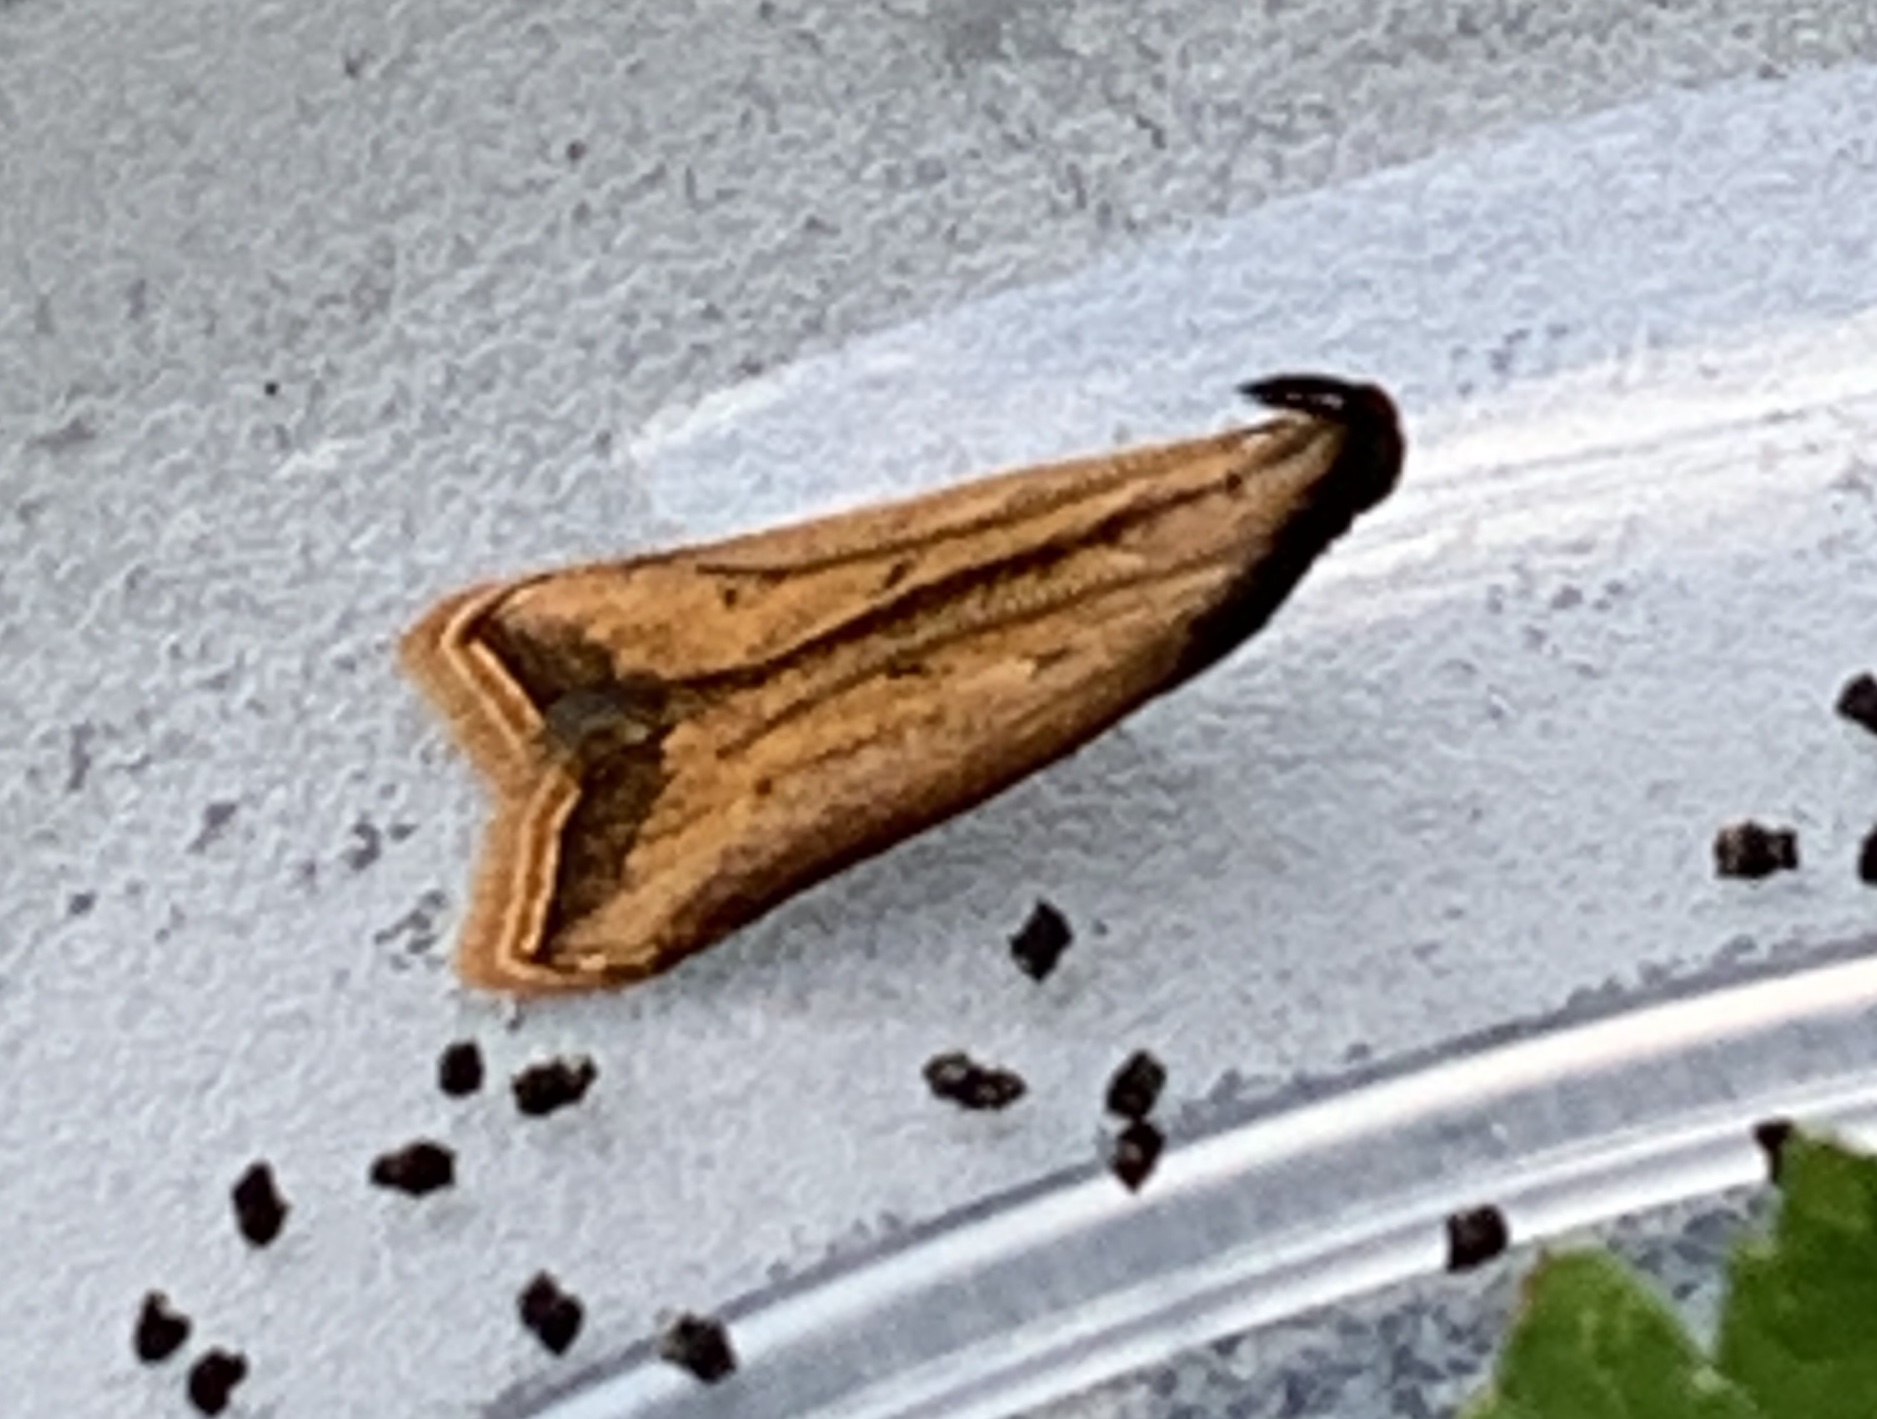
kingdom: Animalia
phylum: Arthropoda
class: Insecta
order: Lepidoptera
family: Gelechiidae
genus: Dichomeris
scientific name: Dichomeris heriguronis
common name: Black-edged dichomeris moth
